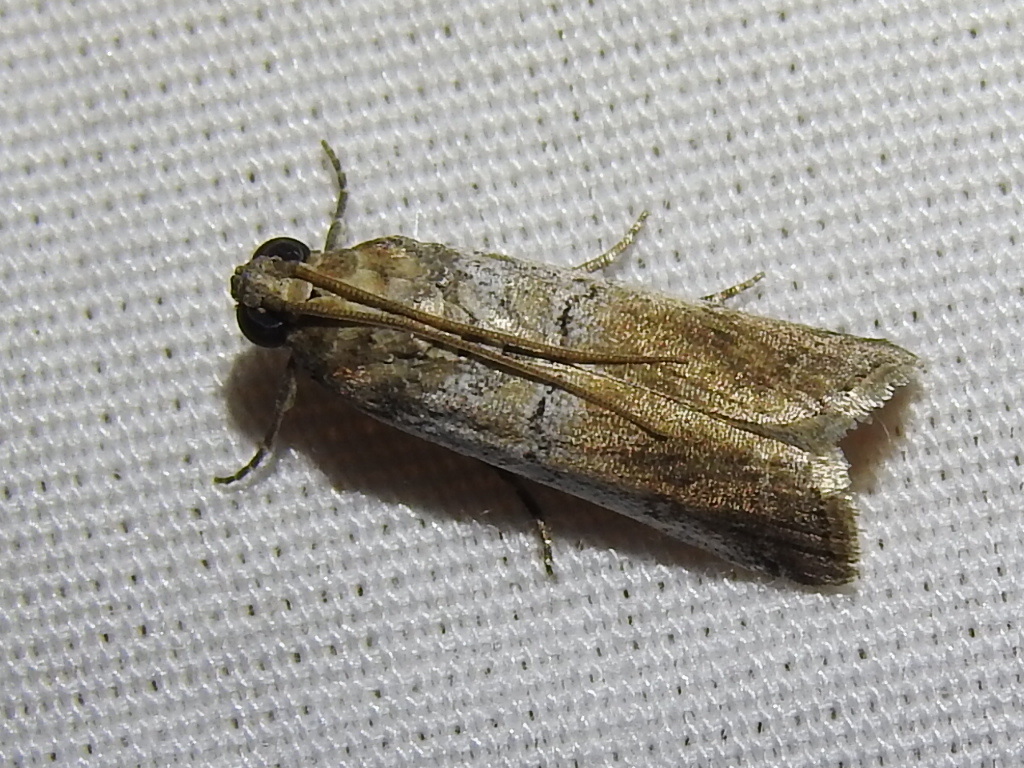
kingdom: Animalia
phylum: Arthropoda
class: Insecta
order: Lepidoptera
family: Pyralidae
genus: Chararica
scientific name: Chararica hystriculella
